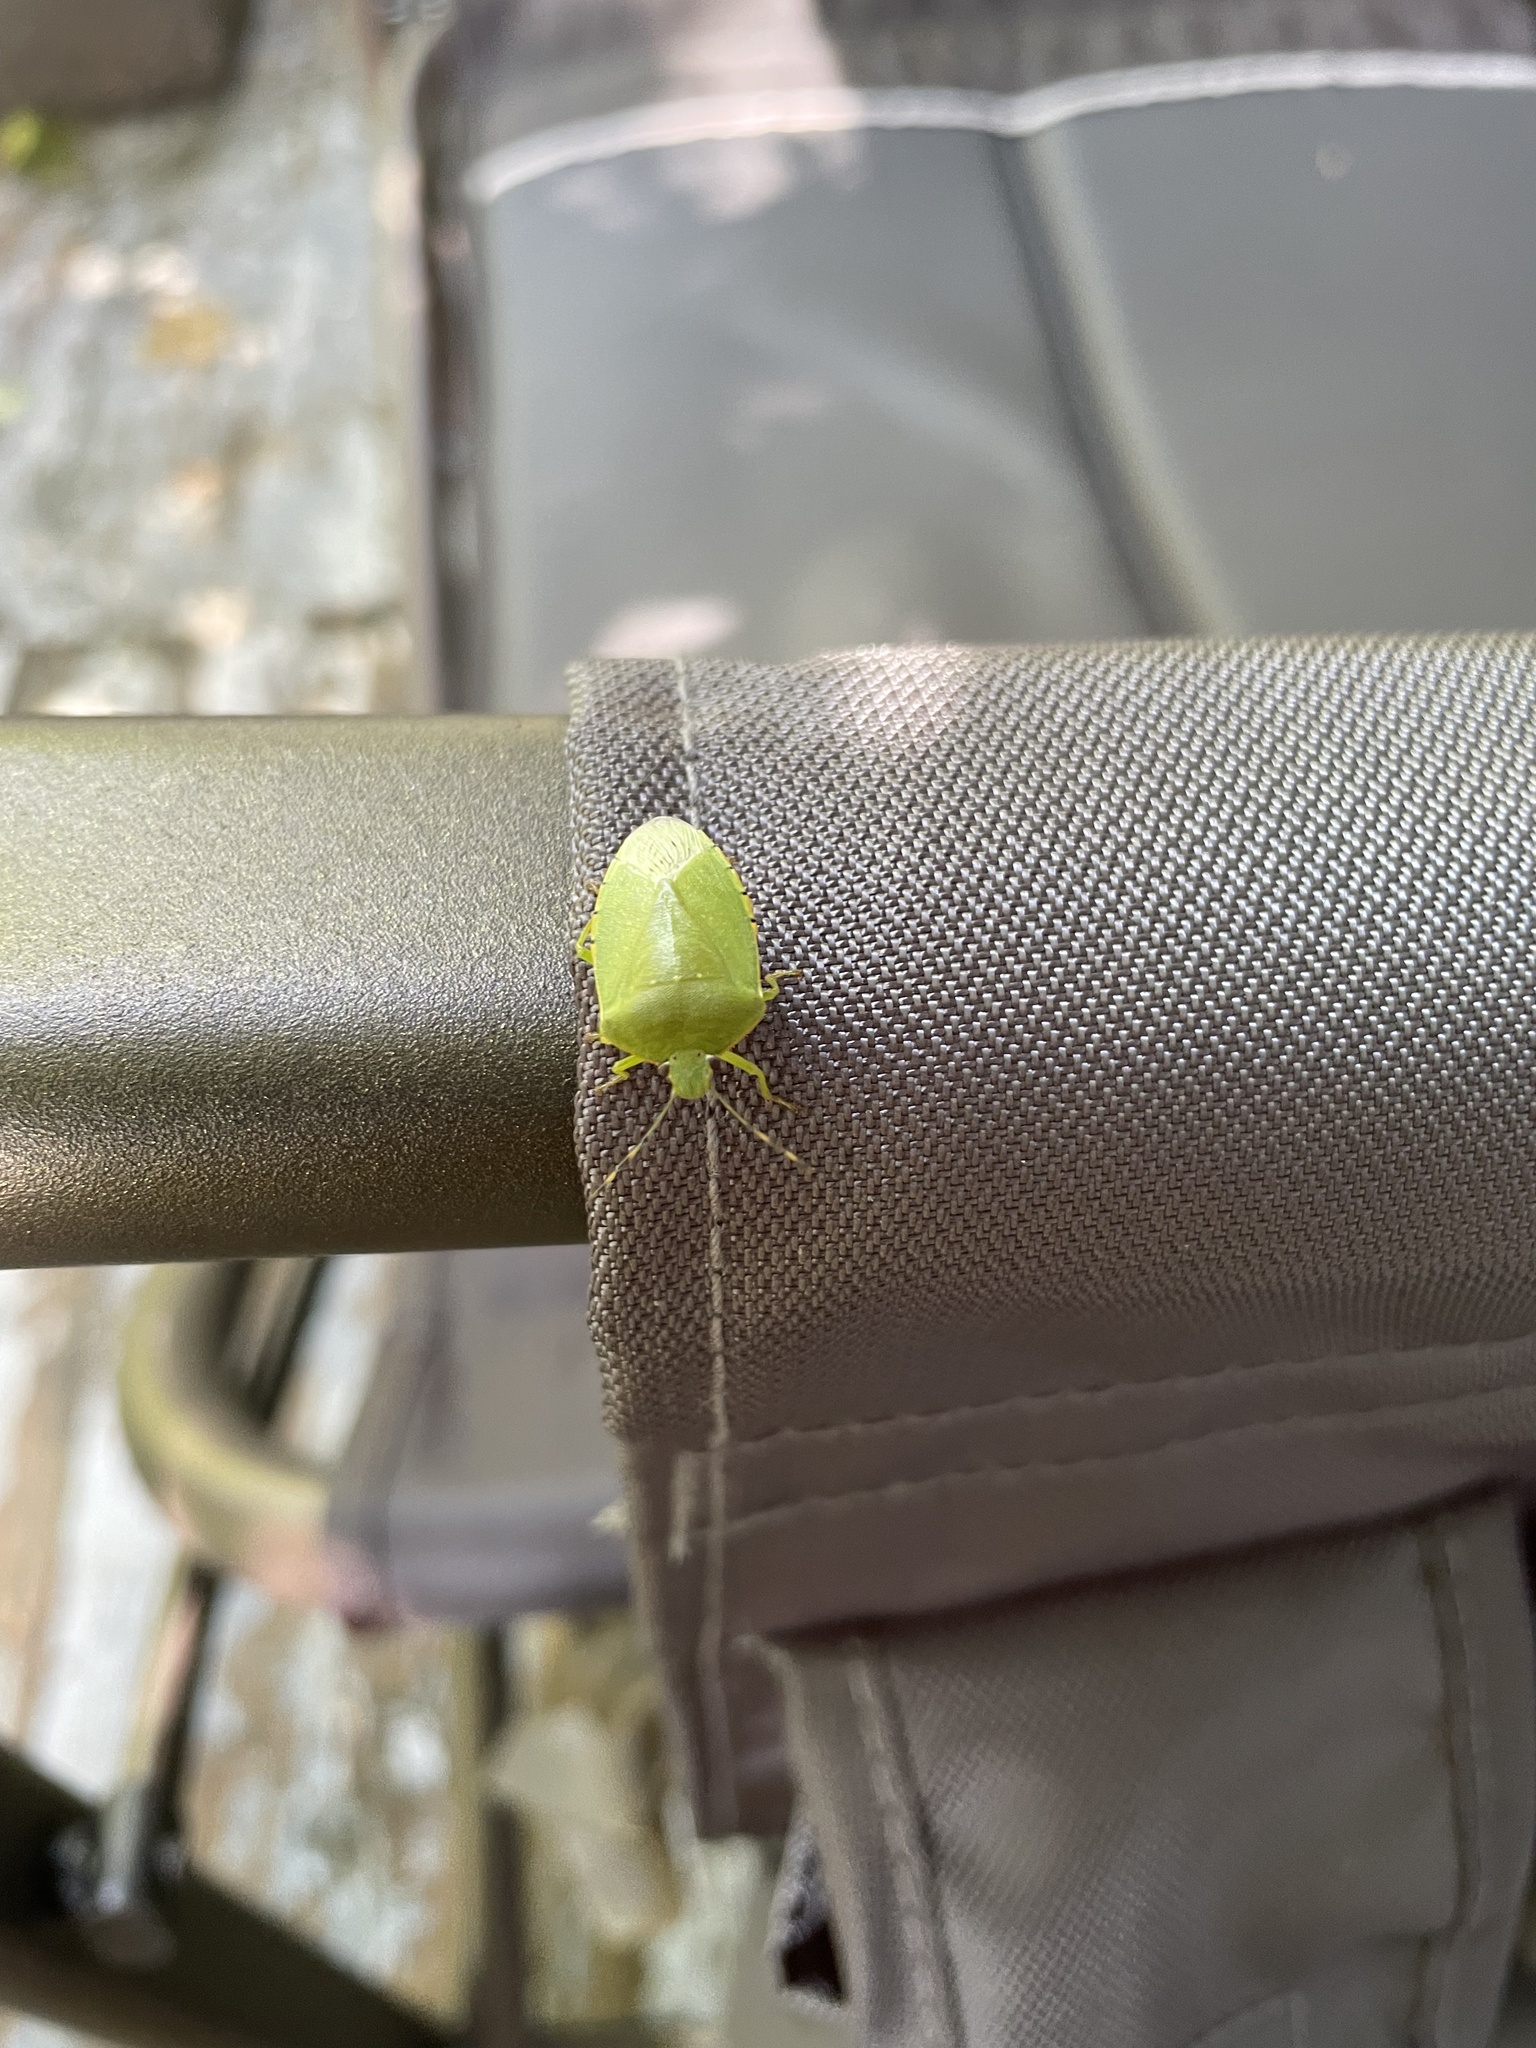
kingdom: Animalia
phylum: Arthropoda
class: Insecta
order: Hemiptera
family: Pentatomidae
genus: Chinavia
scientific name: Chinavia hilaris
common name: Green stink bug
